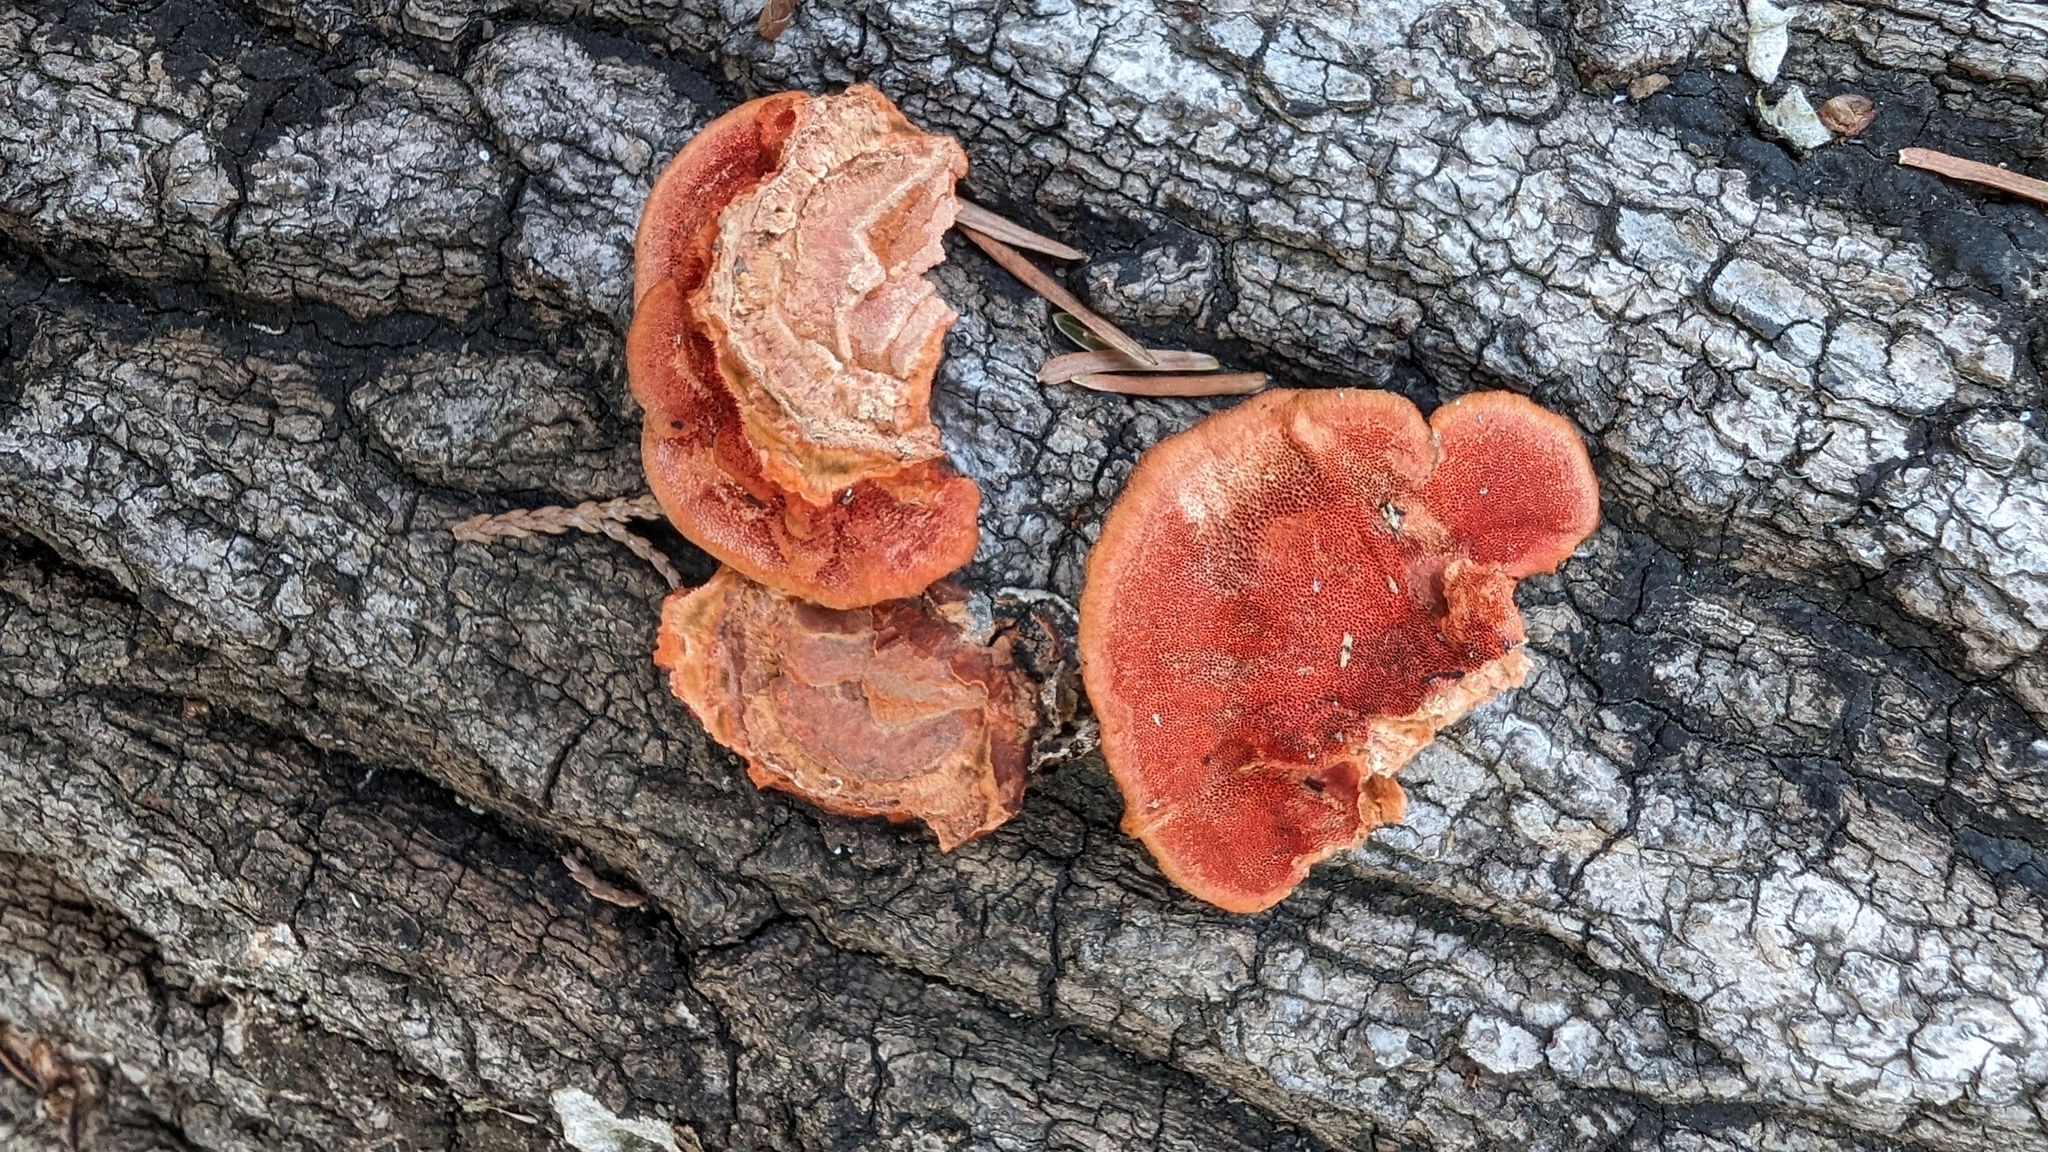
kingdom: Fungi
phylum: Basidiomycota
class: Agaricomycetes
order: Polyporales
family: Polyporaceae
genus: Trametes
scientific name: Trametes coccinea
